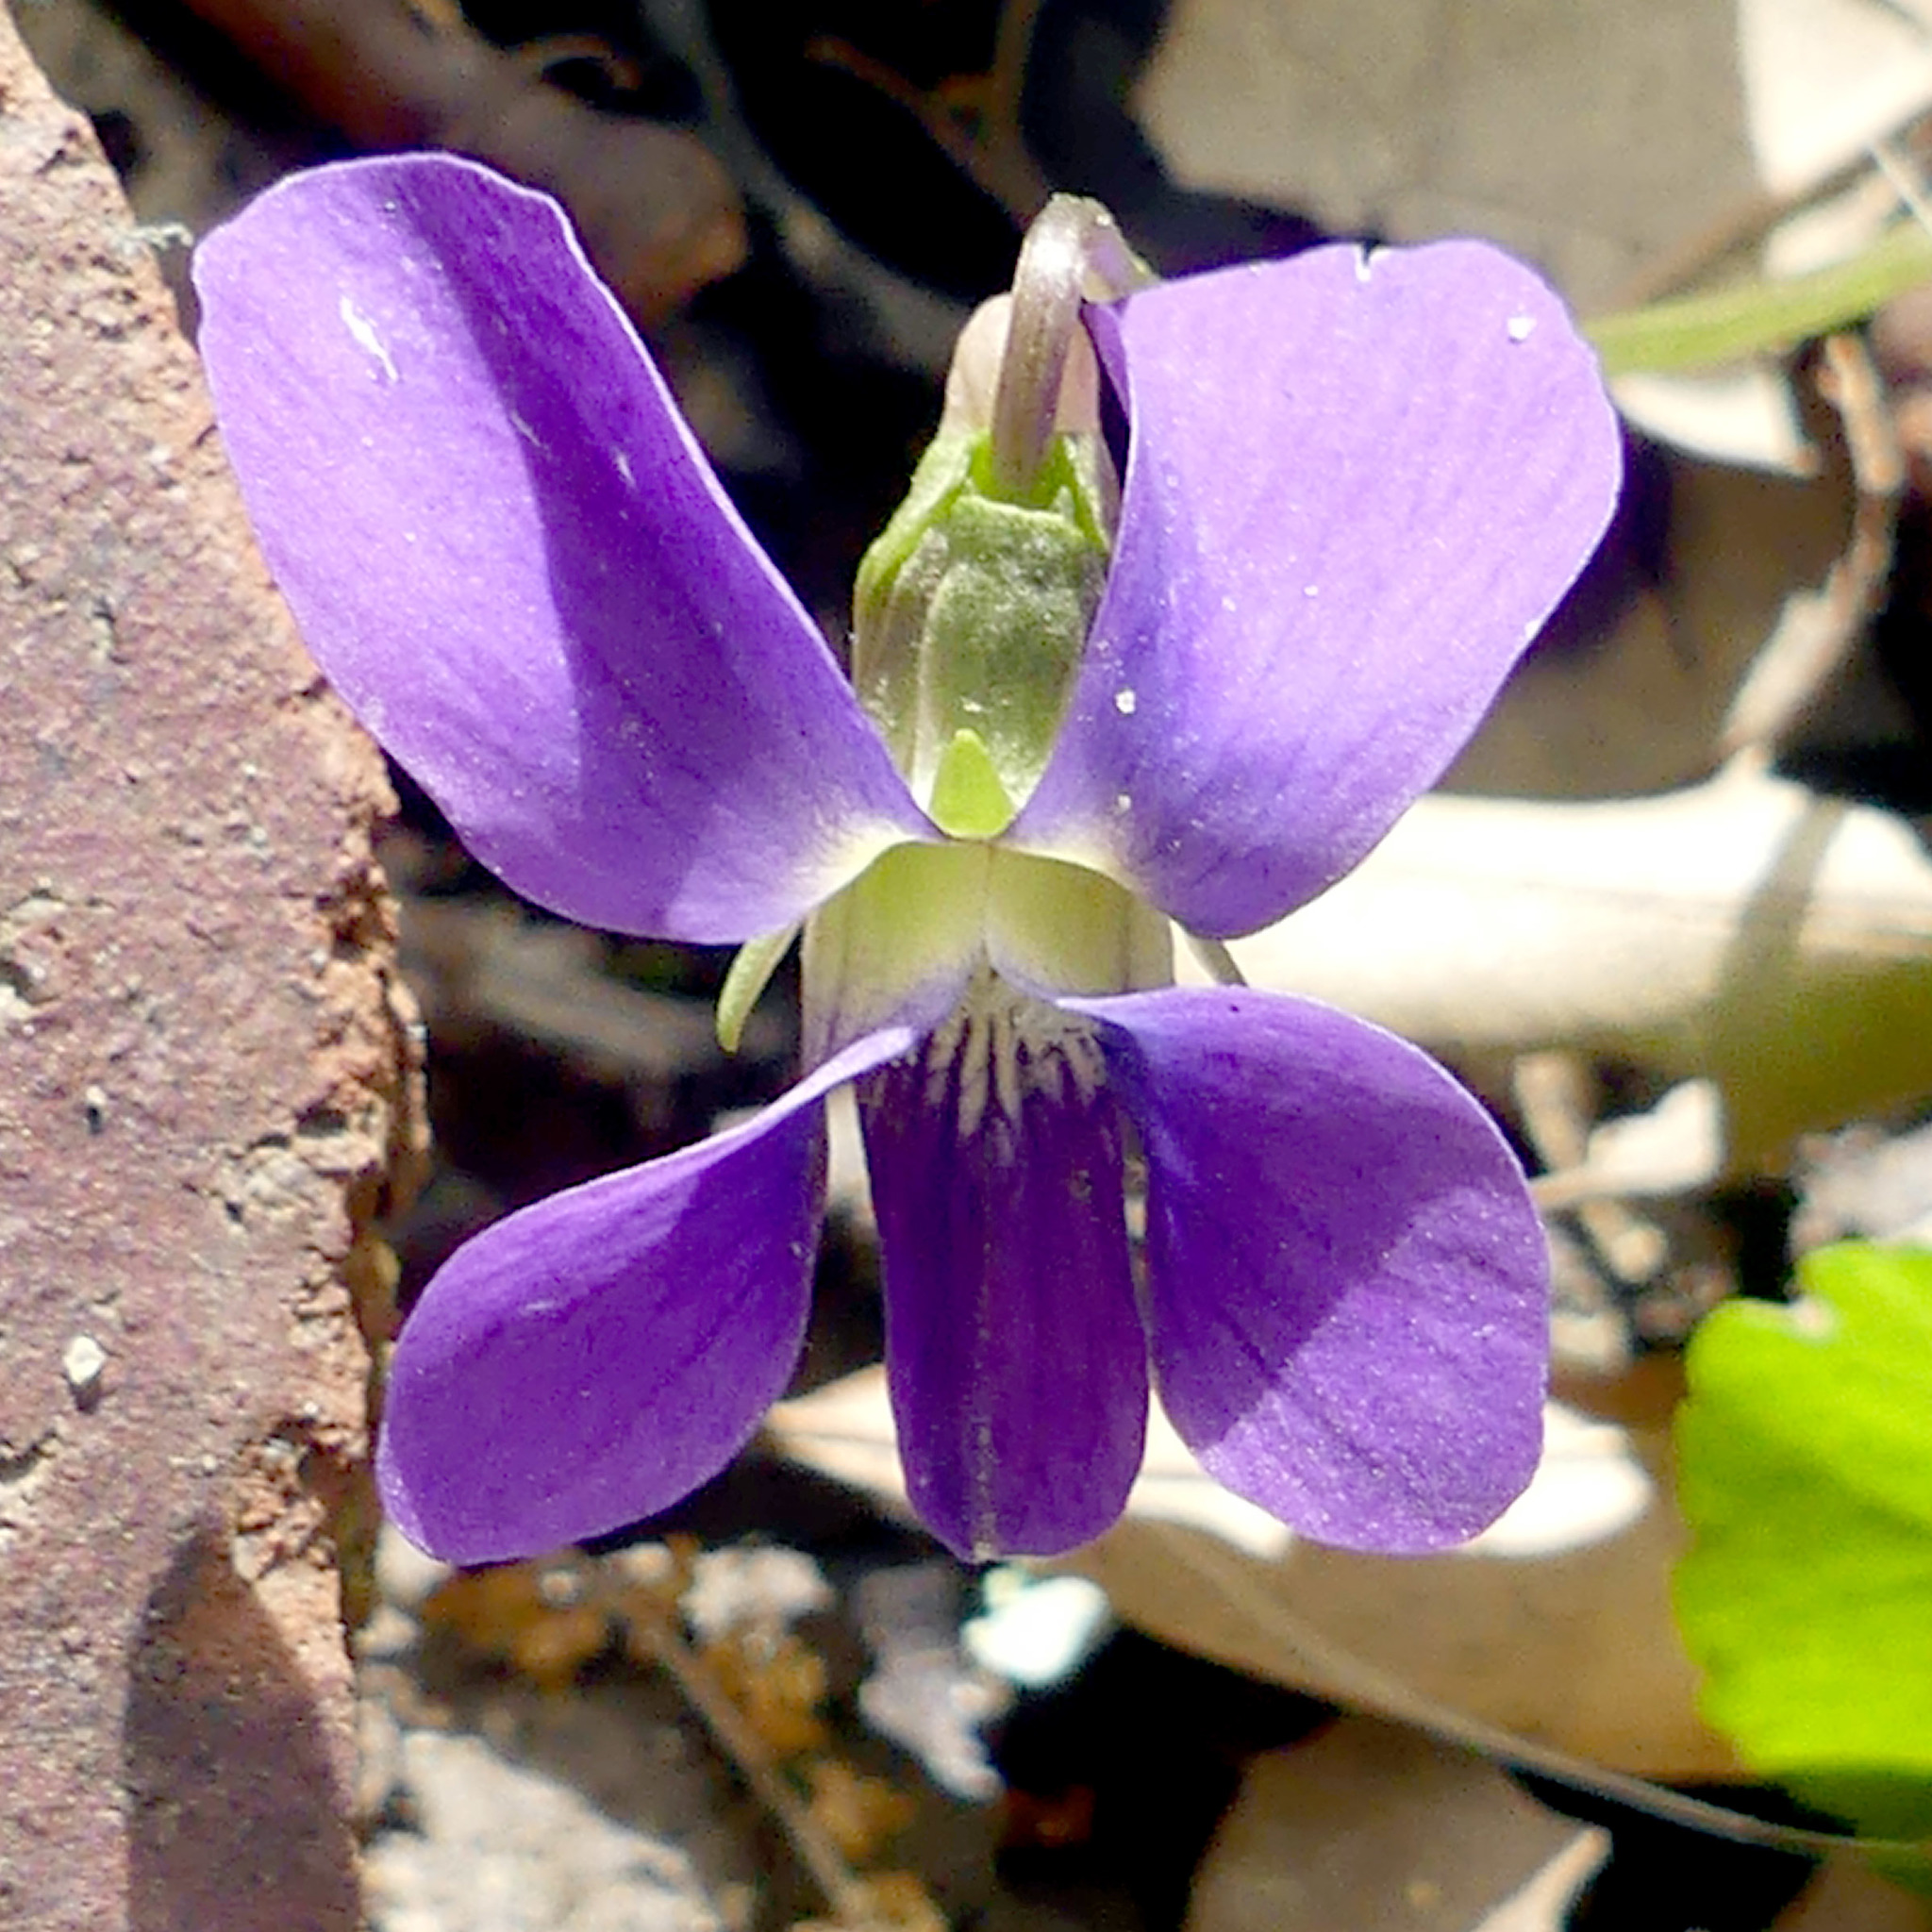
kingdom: Plantae
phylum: Tracheophyta
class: Magnoliopsida
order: Malpighiales
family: Violaceae
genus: Viola
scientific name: Viola sororia
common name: Dooryard violet
